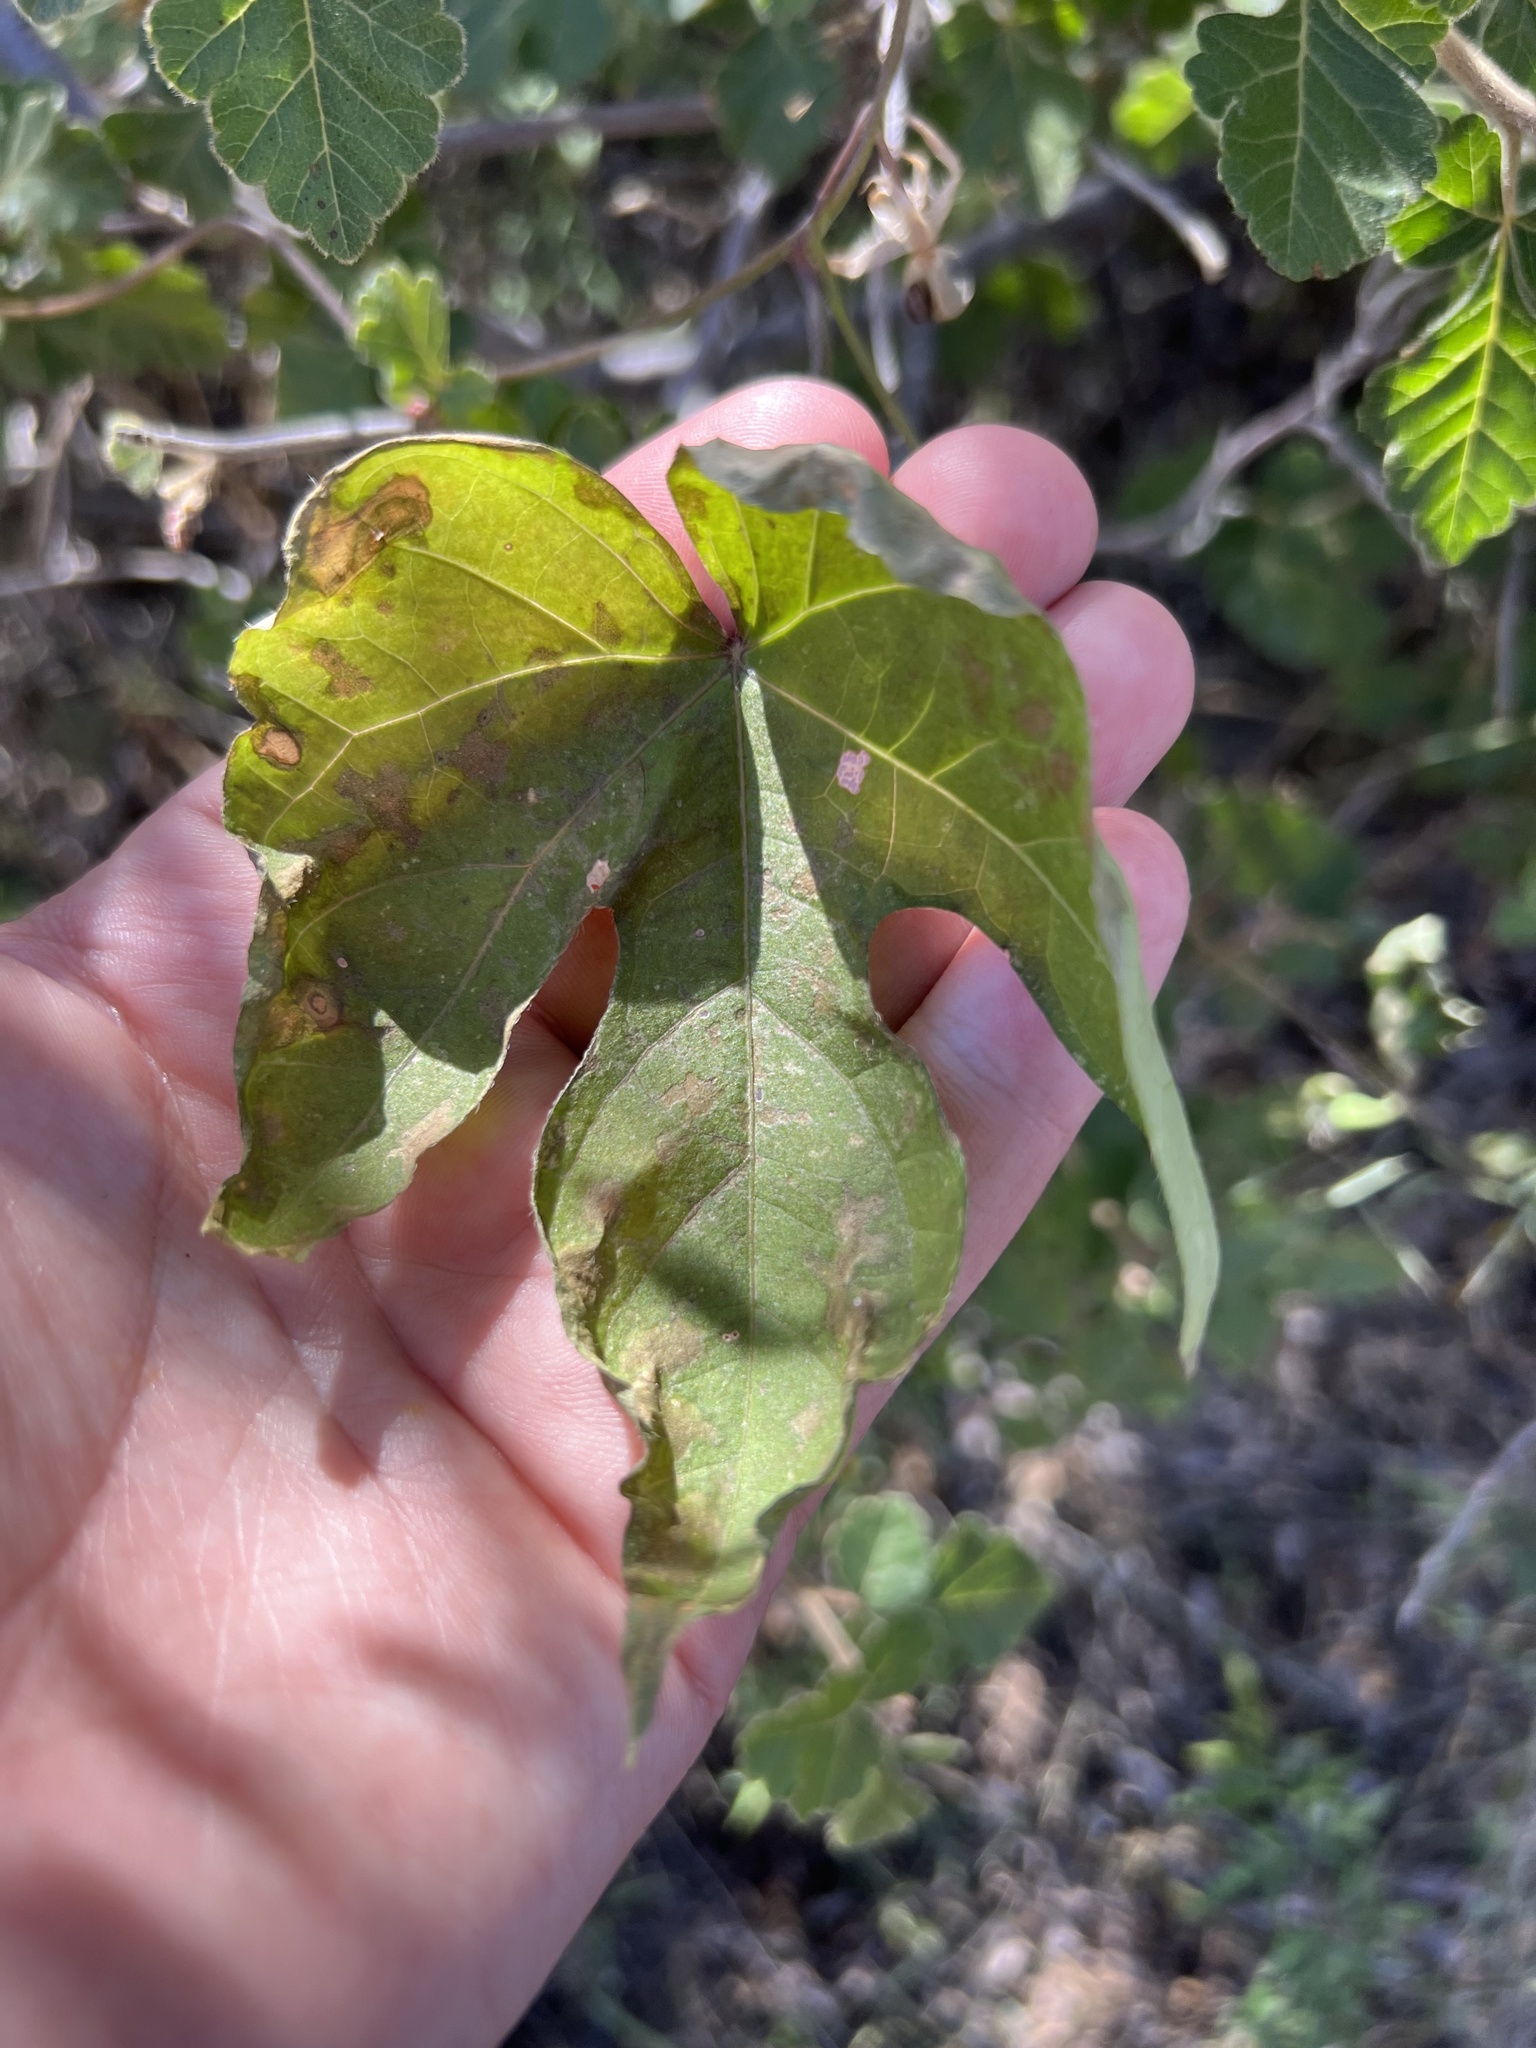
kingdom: Plantae
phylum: Tracheophyta
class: Magnoliopsida
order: Solanales
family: Convolvulaceae
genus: Ipomoea
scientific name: Ipomoea purpurea
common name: Common morning-glory
